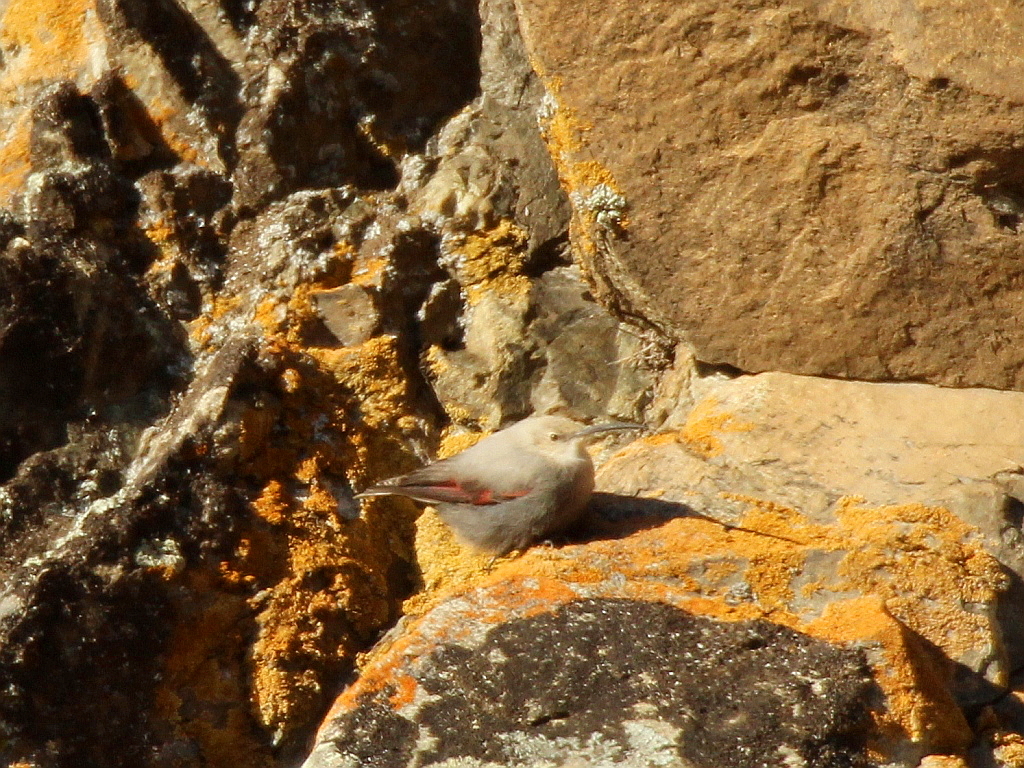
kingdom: Animalia
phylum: Chordata
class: Aves
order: Passeriformes
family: Tichodromidae
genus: Tichodroma
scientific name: Tichodroma muraria
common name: Wallcreeper
